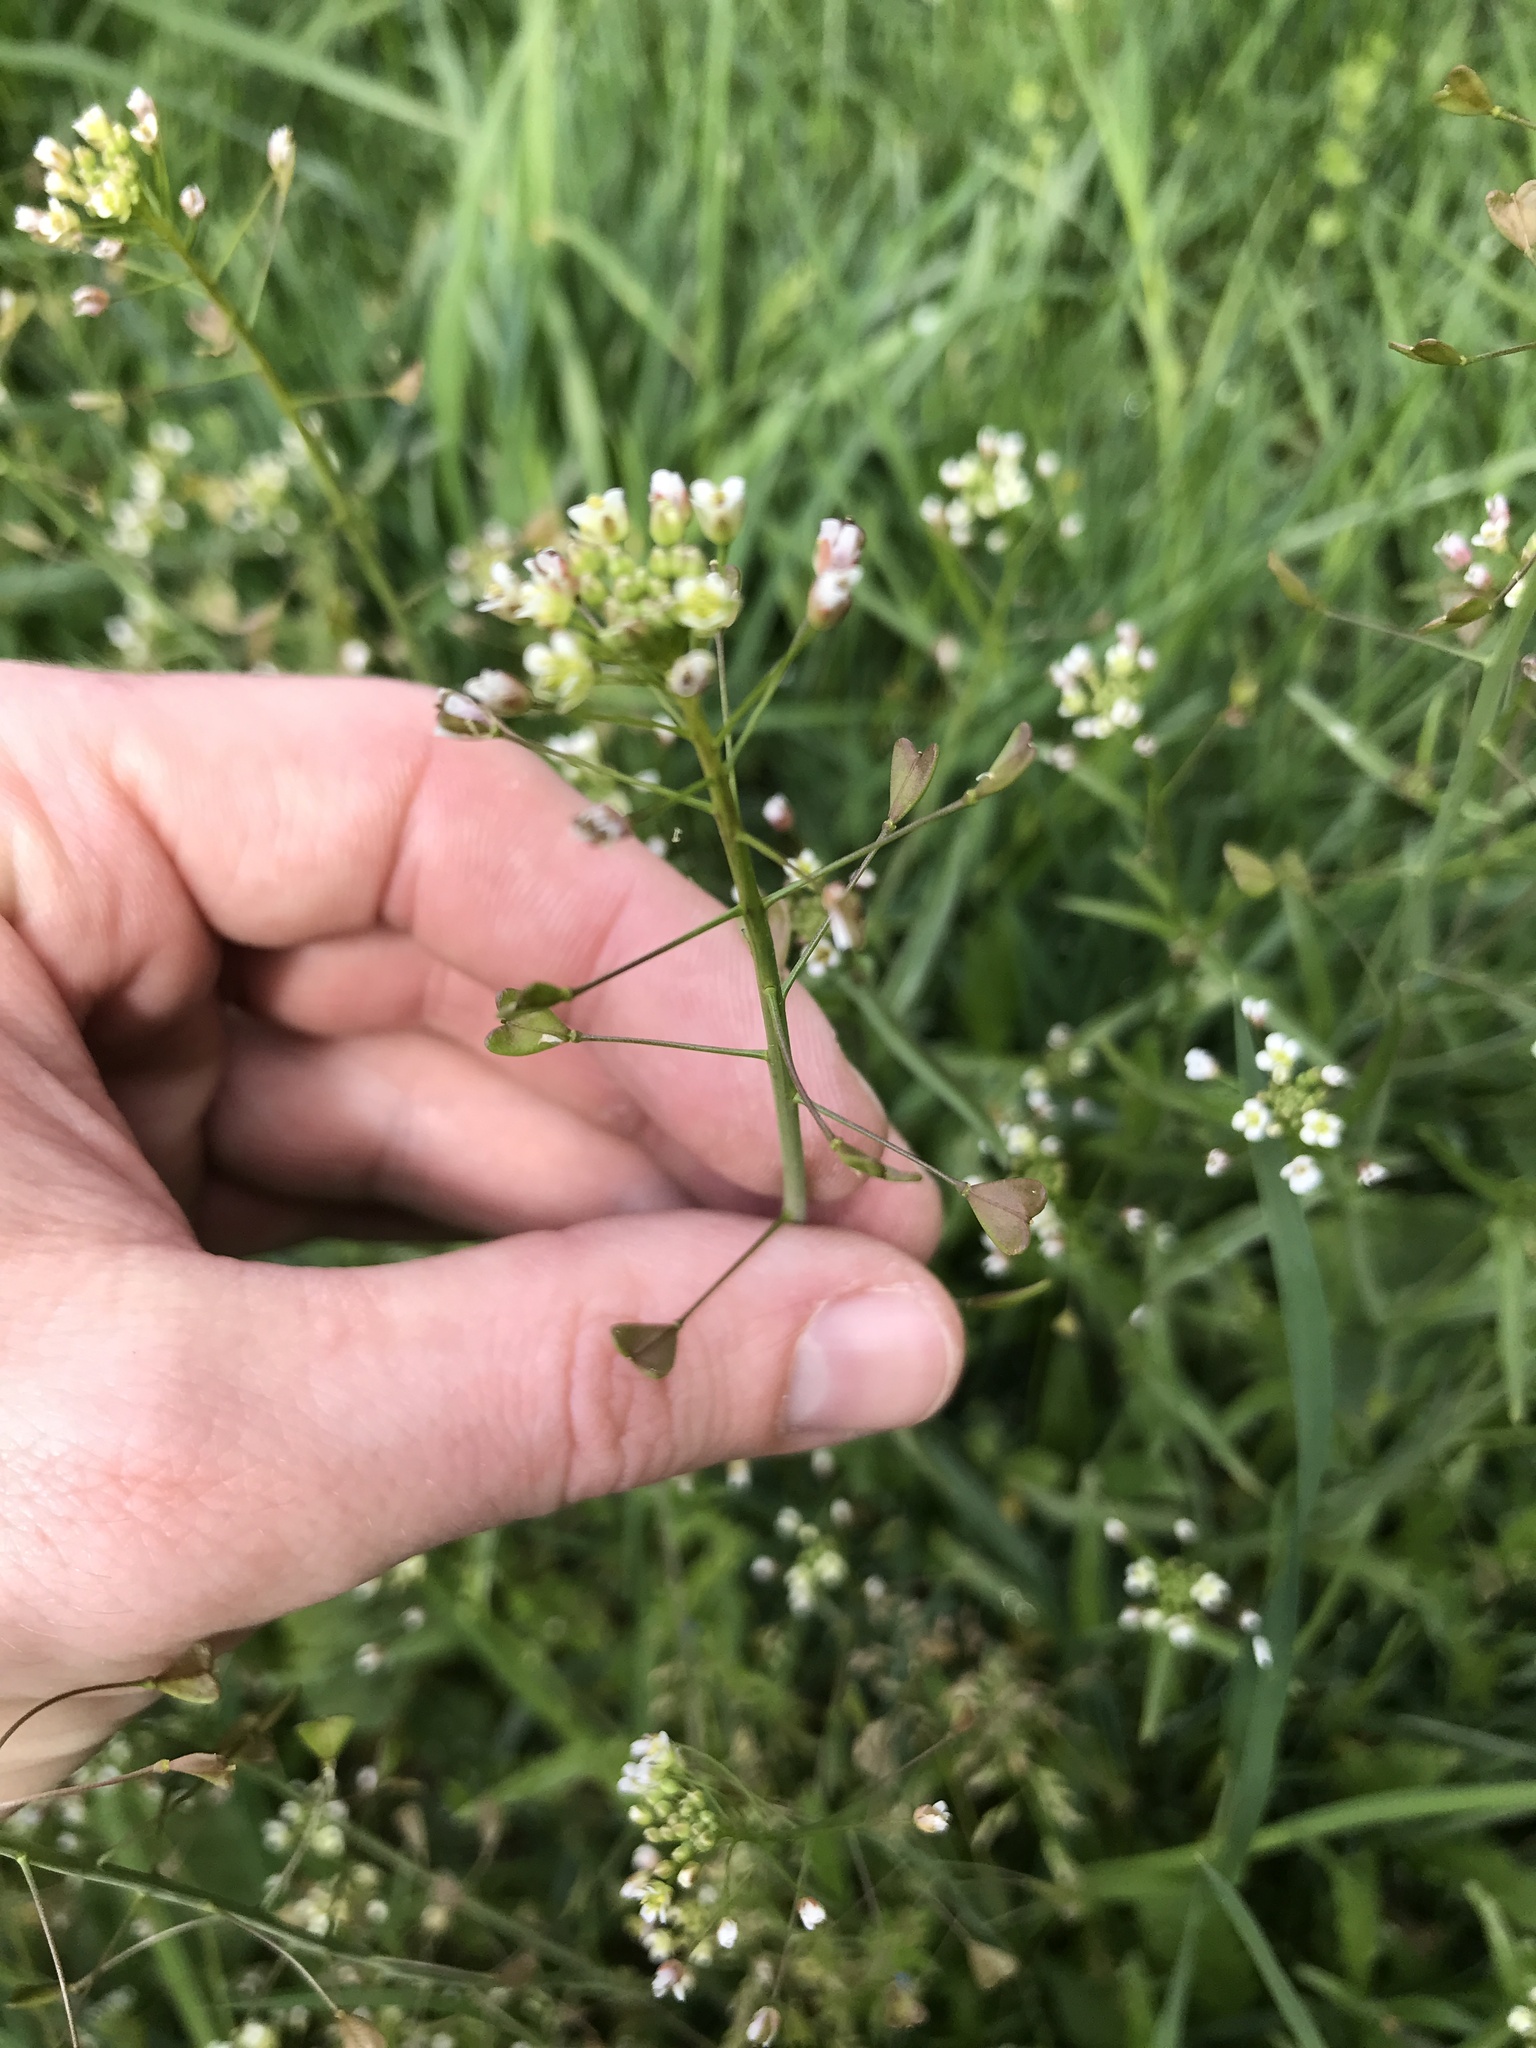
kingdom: Plantae
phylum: Tracheophyta
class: Magnoliopsida
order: Brassicales
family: Brassicaceae
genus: Capsella
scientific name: Capsella bursa-pastoris
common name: Shepherd's purse
